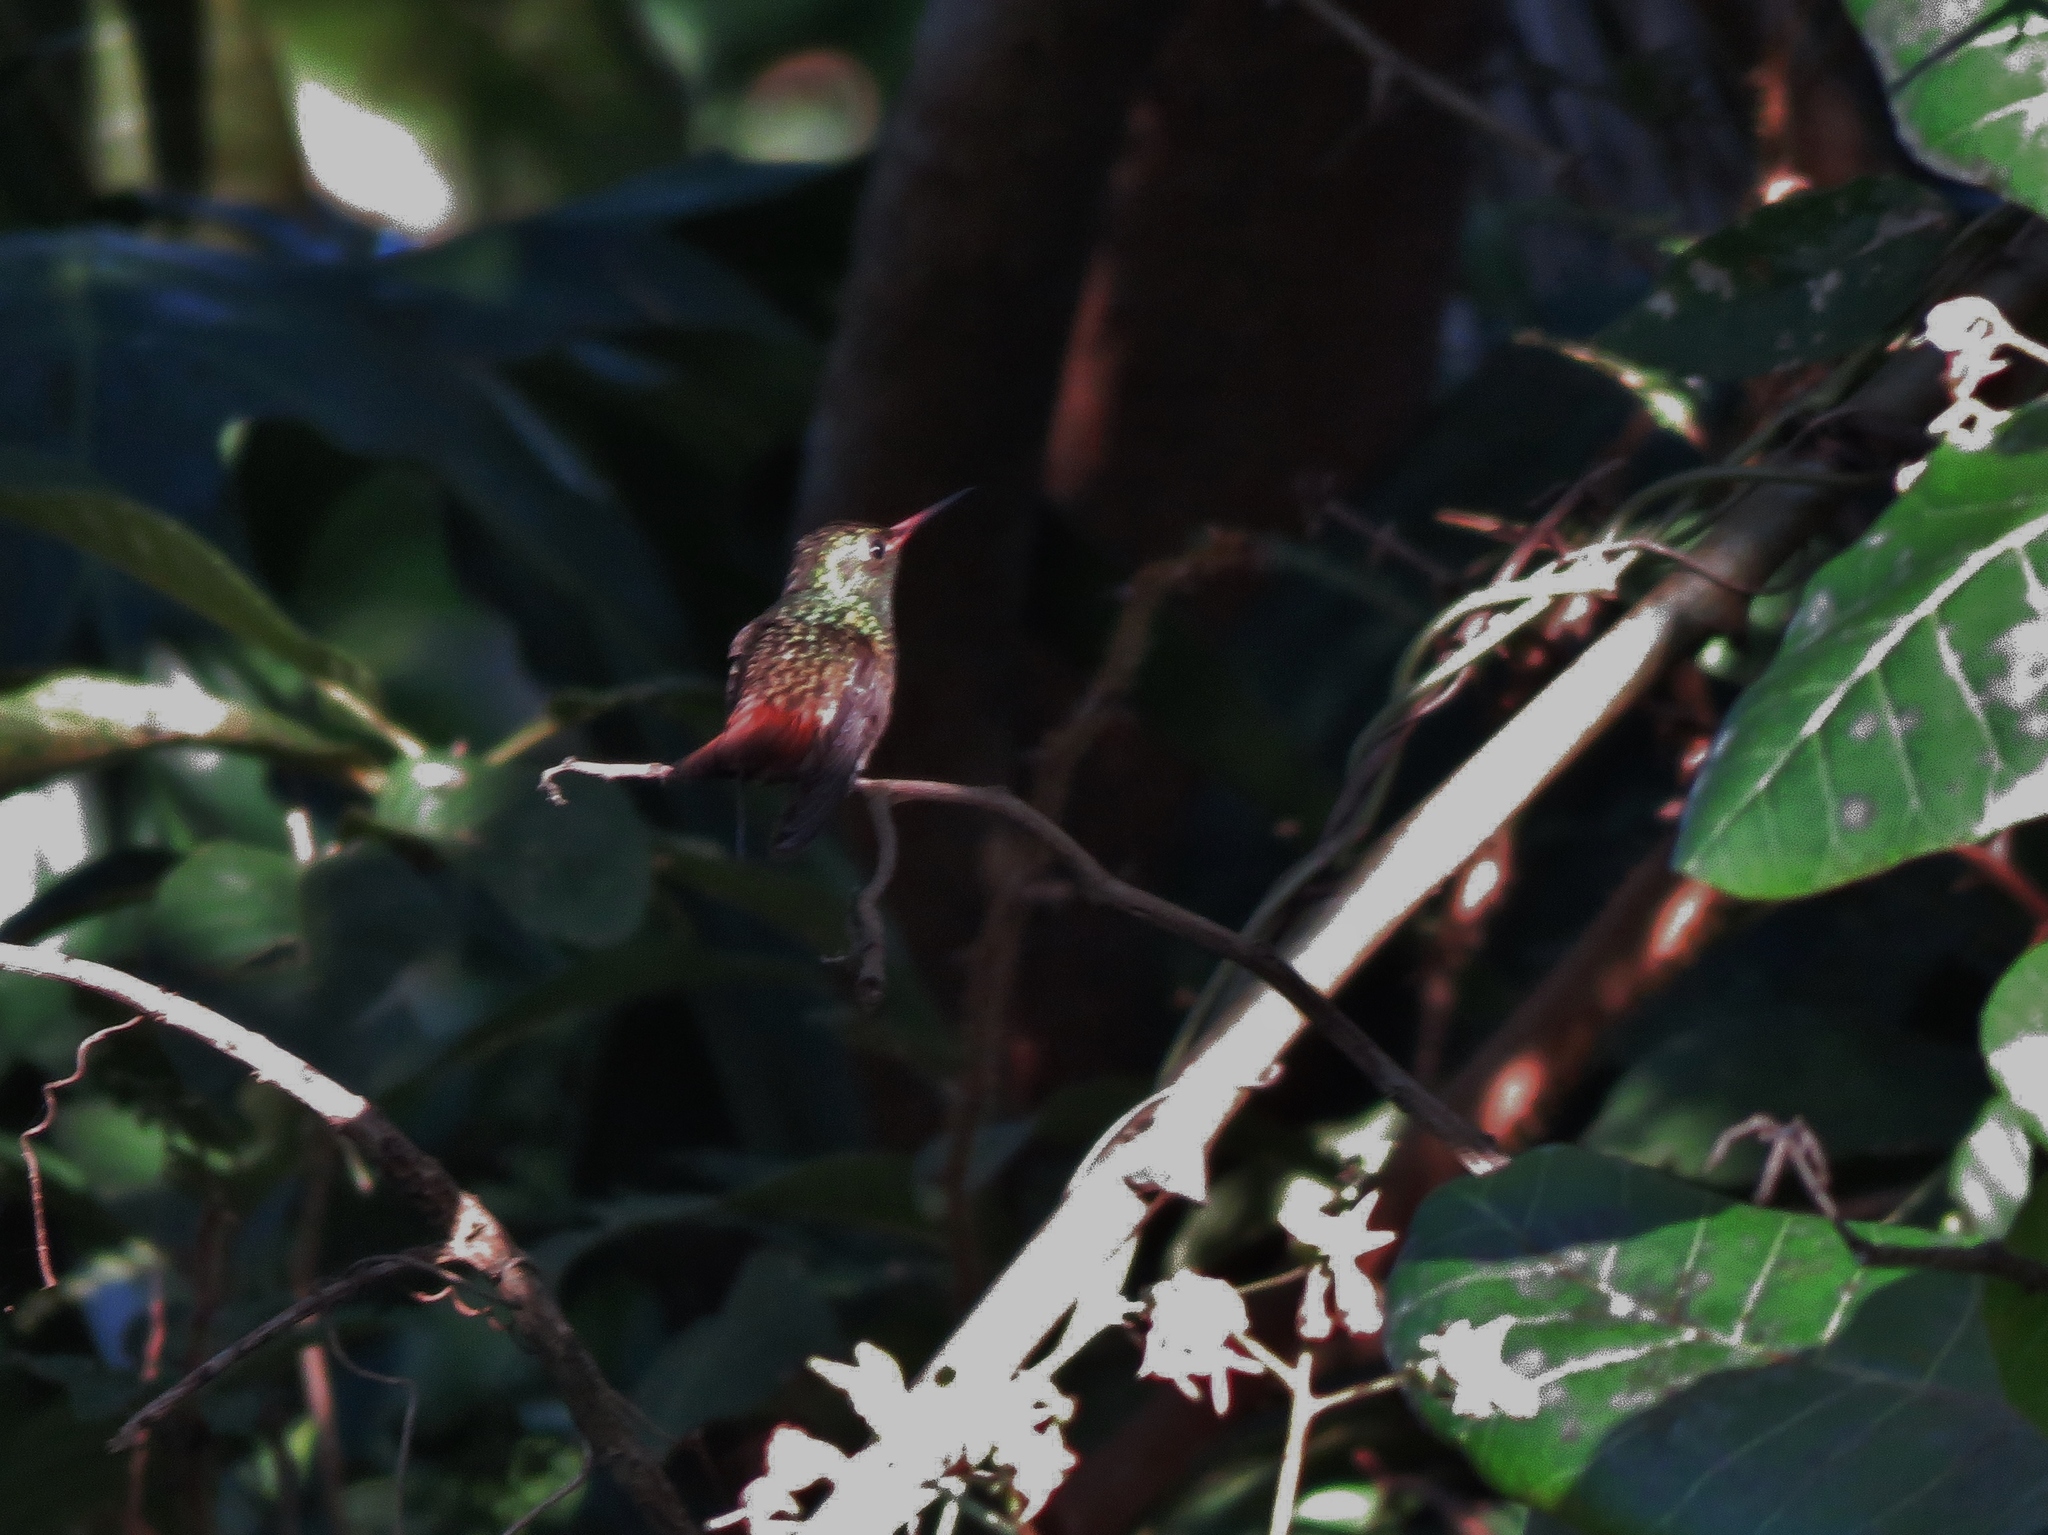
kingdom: Animalia
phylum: Chordata
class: Aves
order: Apodiformes
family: Trochilidae
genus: Amazilia
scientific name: Amazilia tzacatl
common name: Rufous-tailed hummingbird
